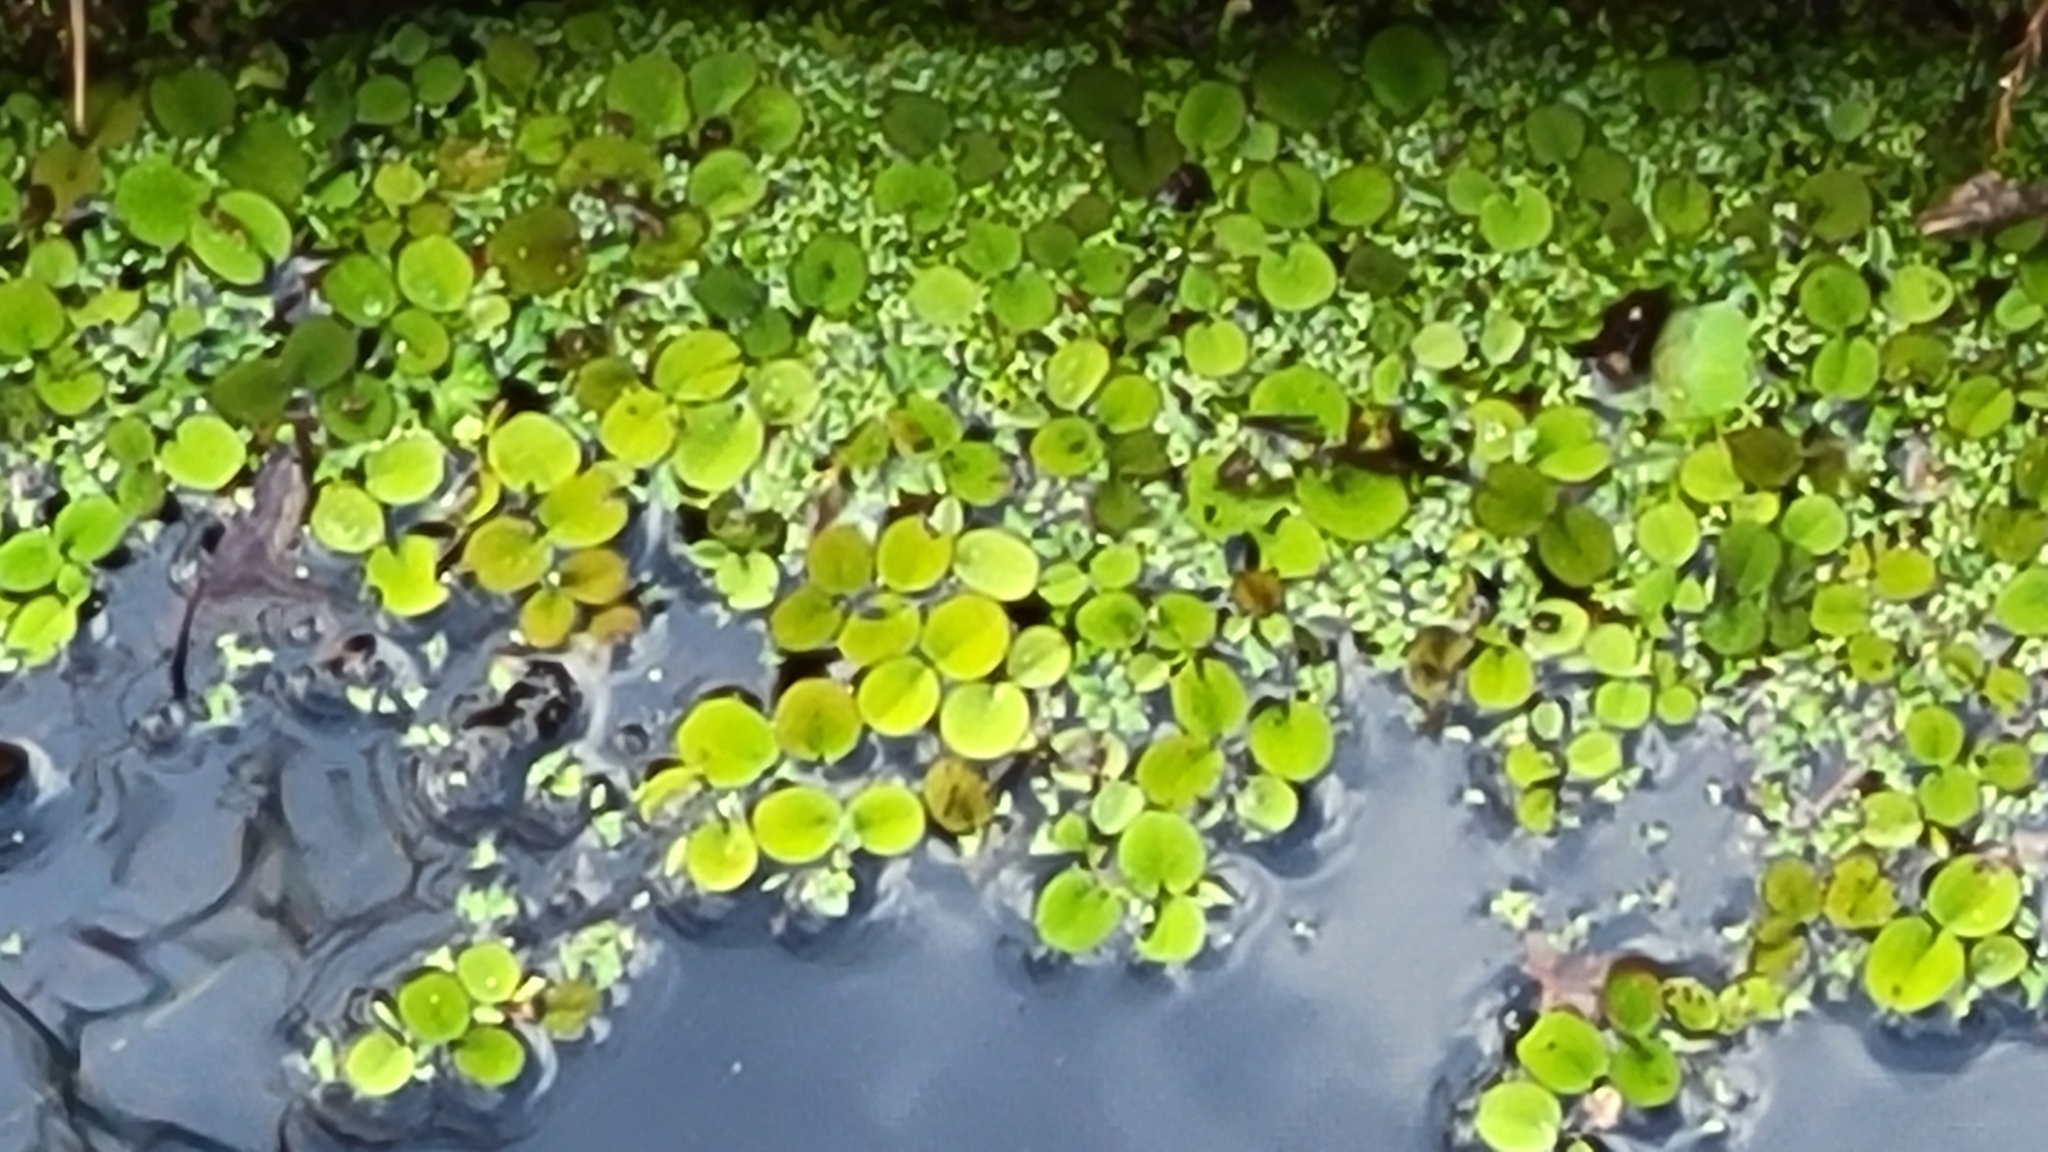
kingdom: Plantae
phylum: Tracheophyta
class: Polypodiopsida
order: Salviniales
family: Salviniaceae
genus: Salvinia
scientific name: Salvinia minima
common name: Water spangles
